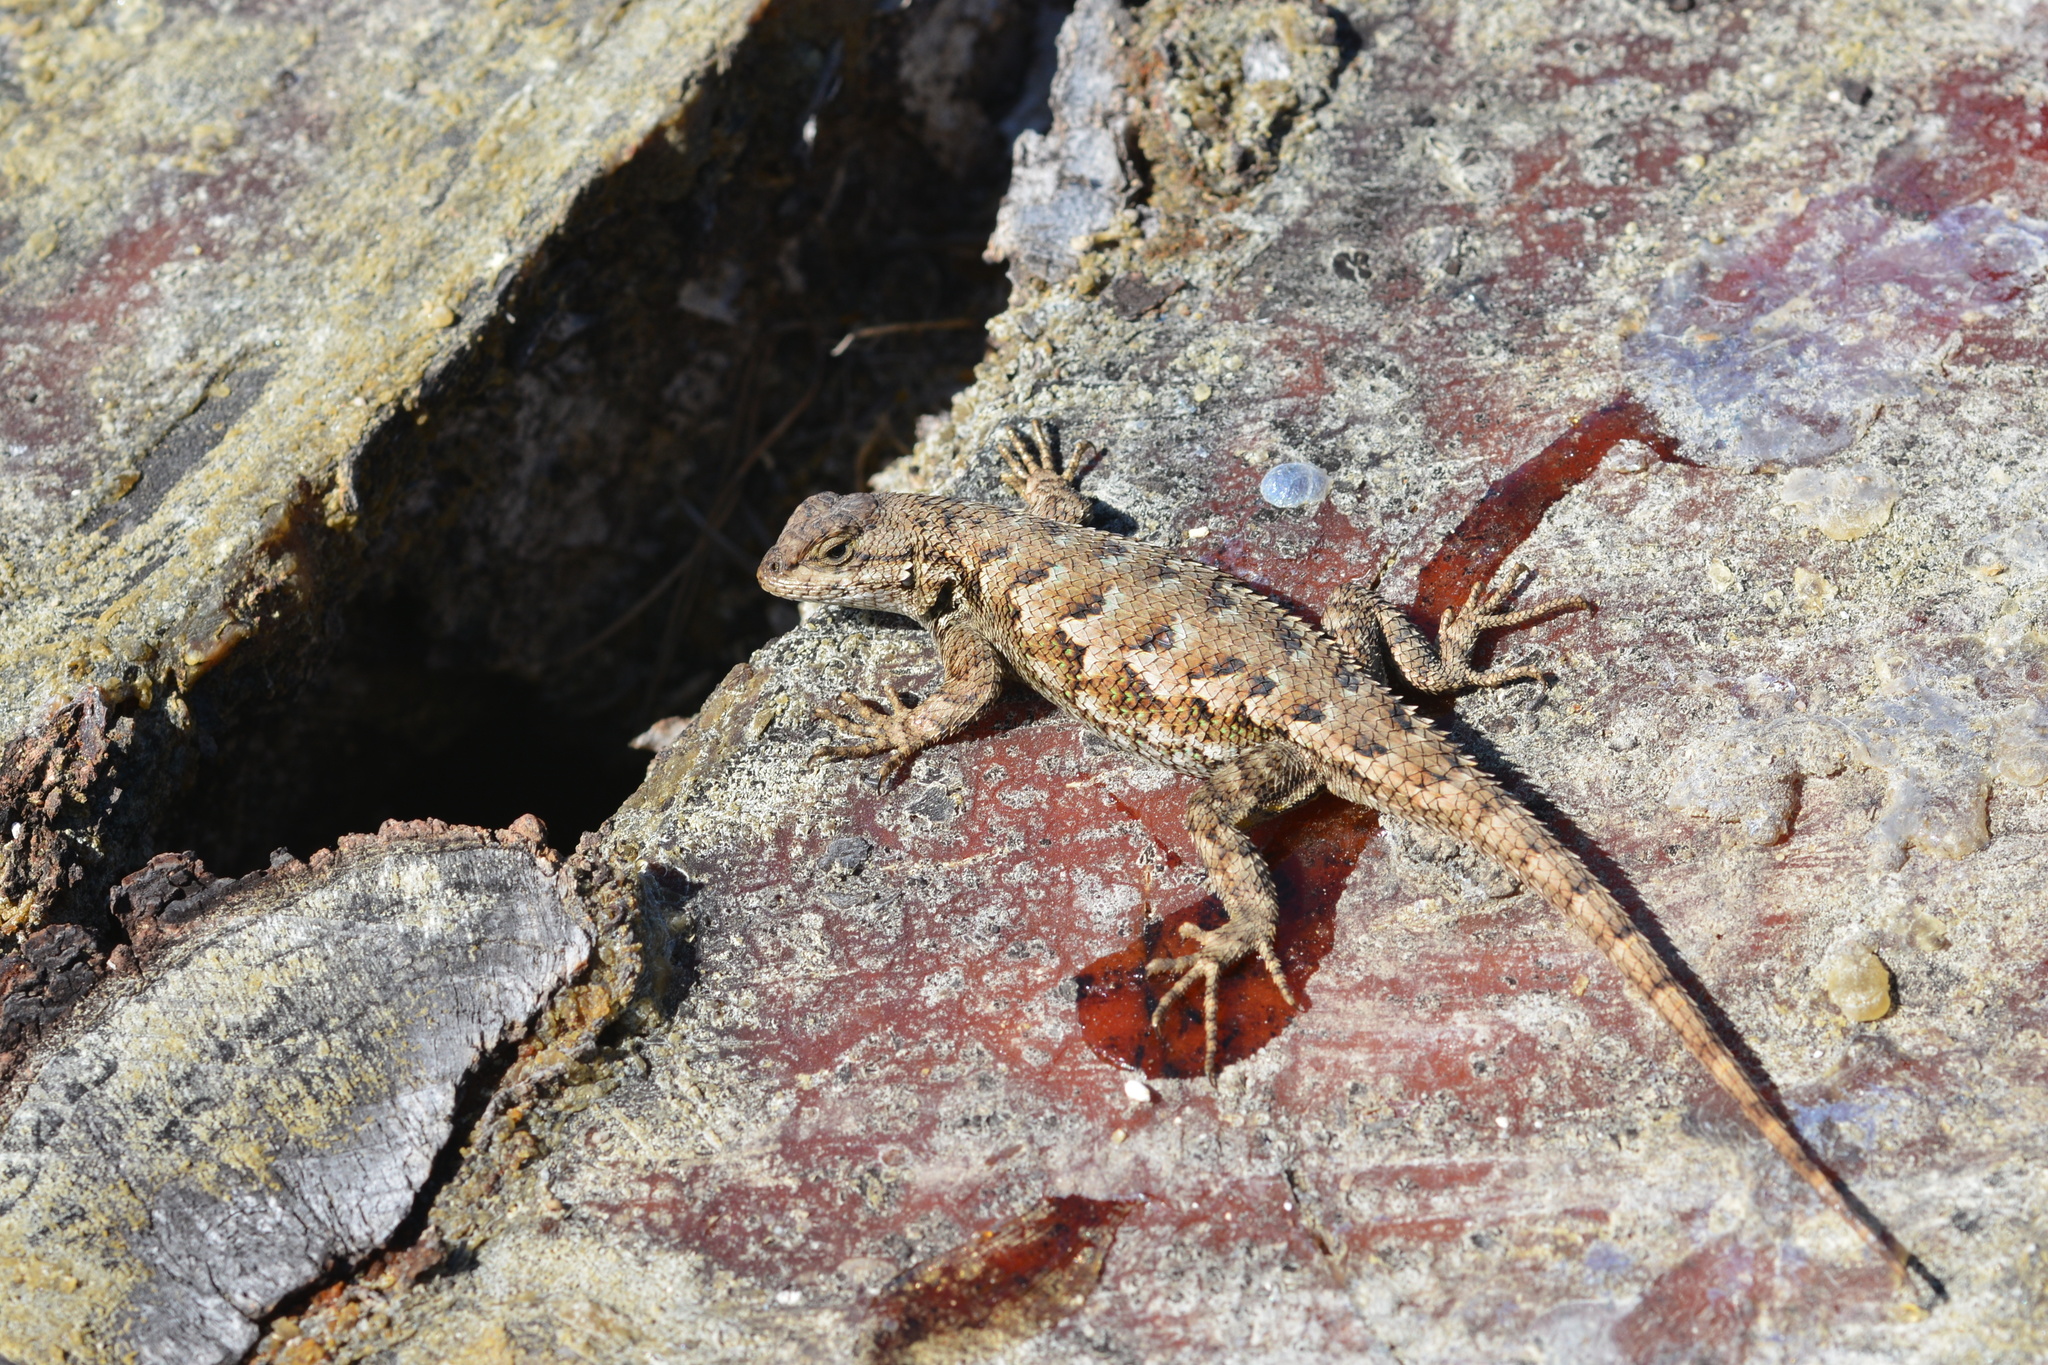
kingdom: Animalia
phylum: Chordata
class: Squamata
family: Phrynosomatidae
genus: Sceloporus
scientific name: Sceloporus occidentalis
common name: Western fence lizard
